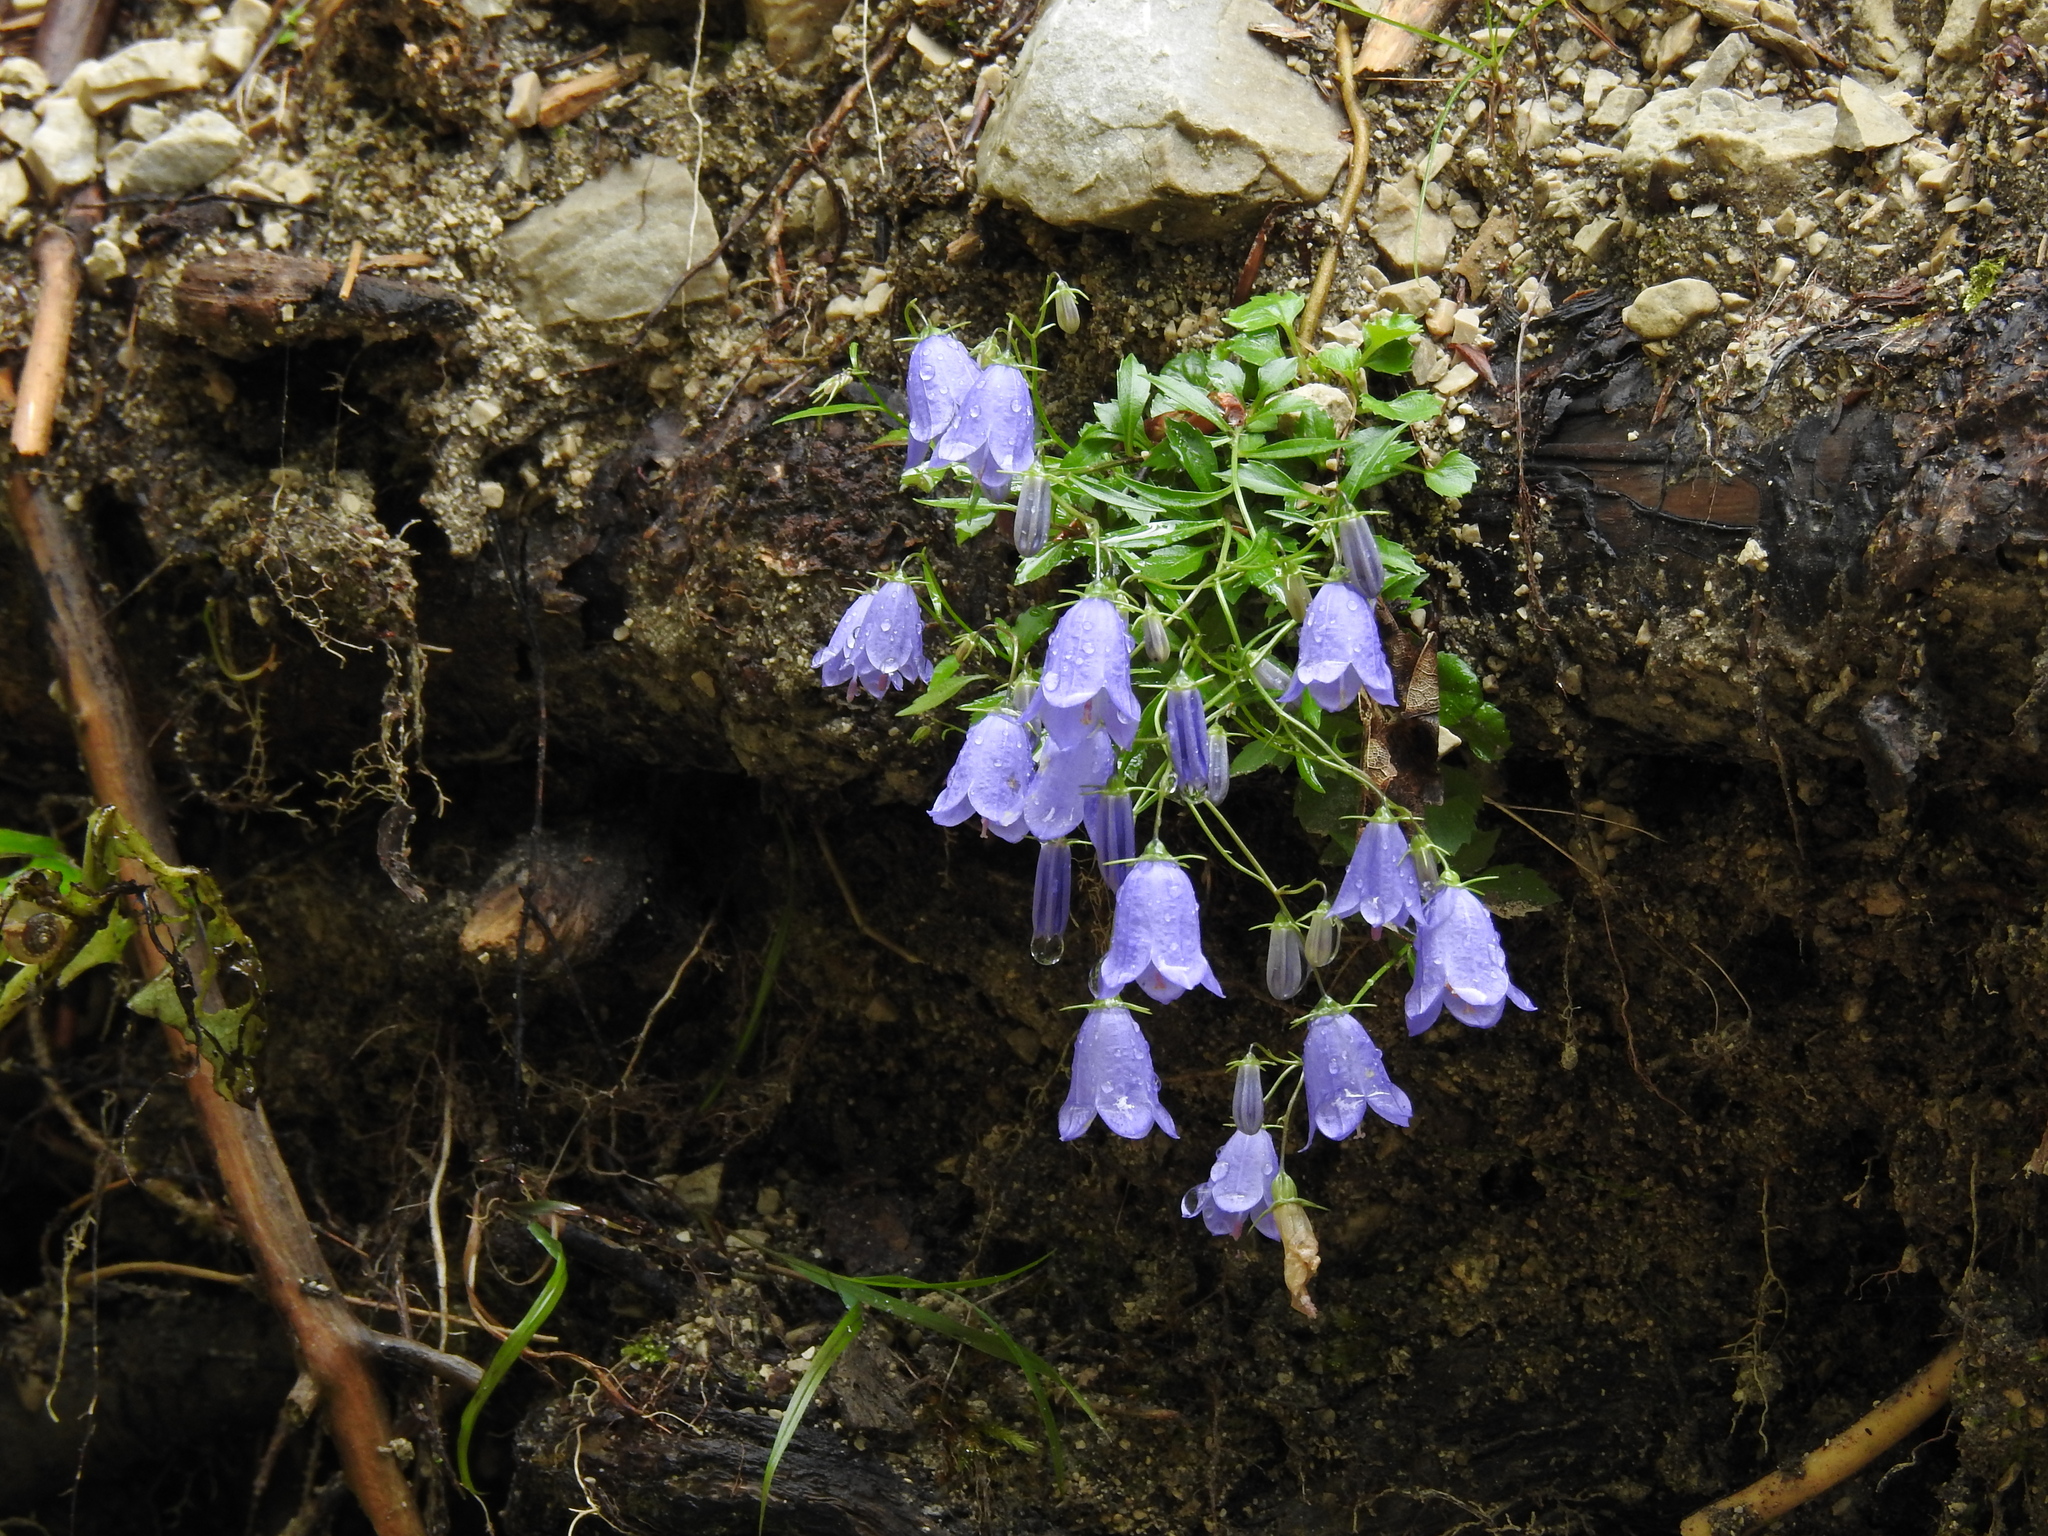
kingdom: Plantae
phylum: Tracheophyta
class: Magnoliopsida
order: Asterales
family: Campanulaceae
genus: Campanula
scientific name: Campanula cochleariifolia
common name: Fairies'-thimbles
